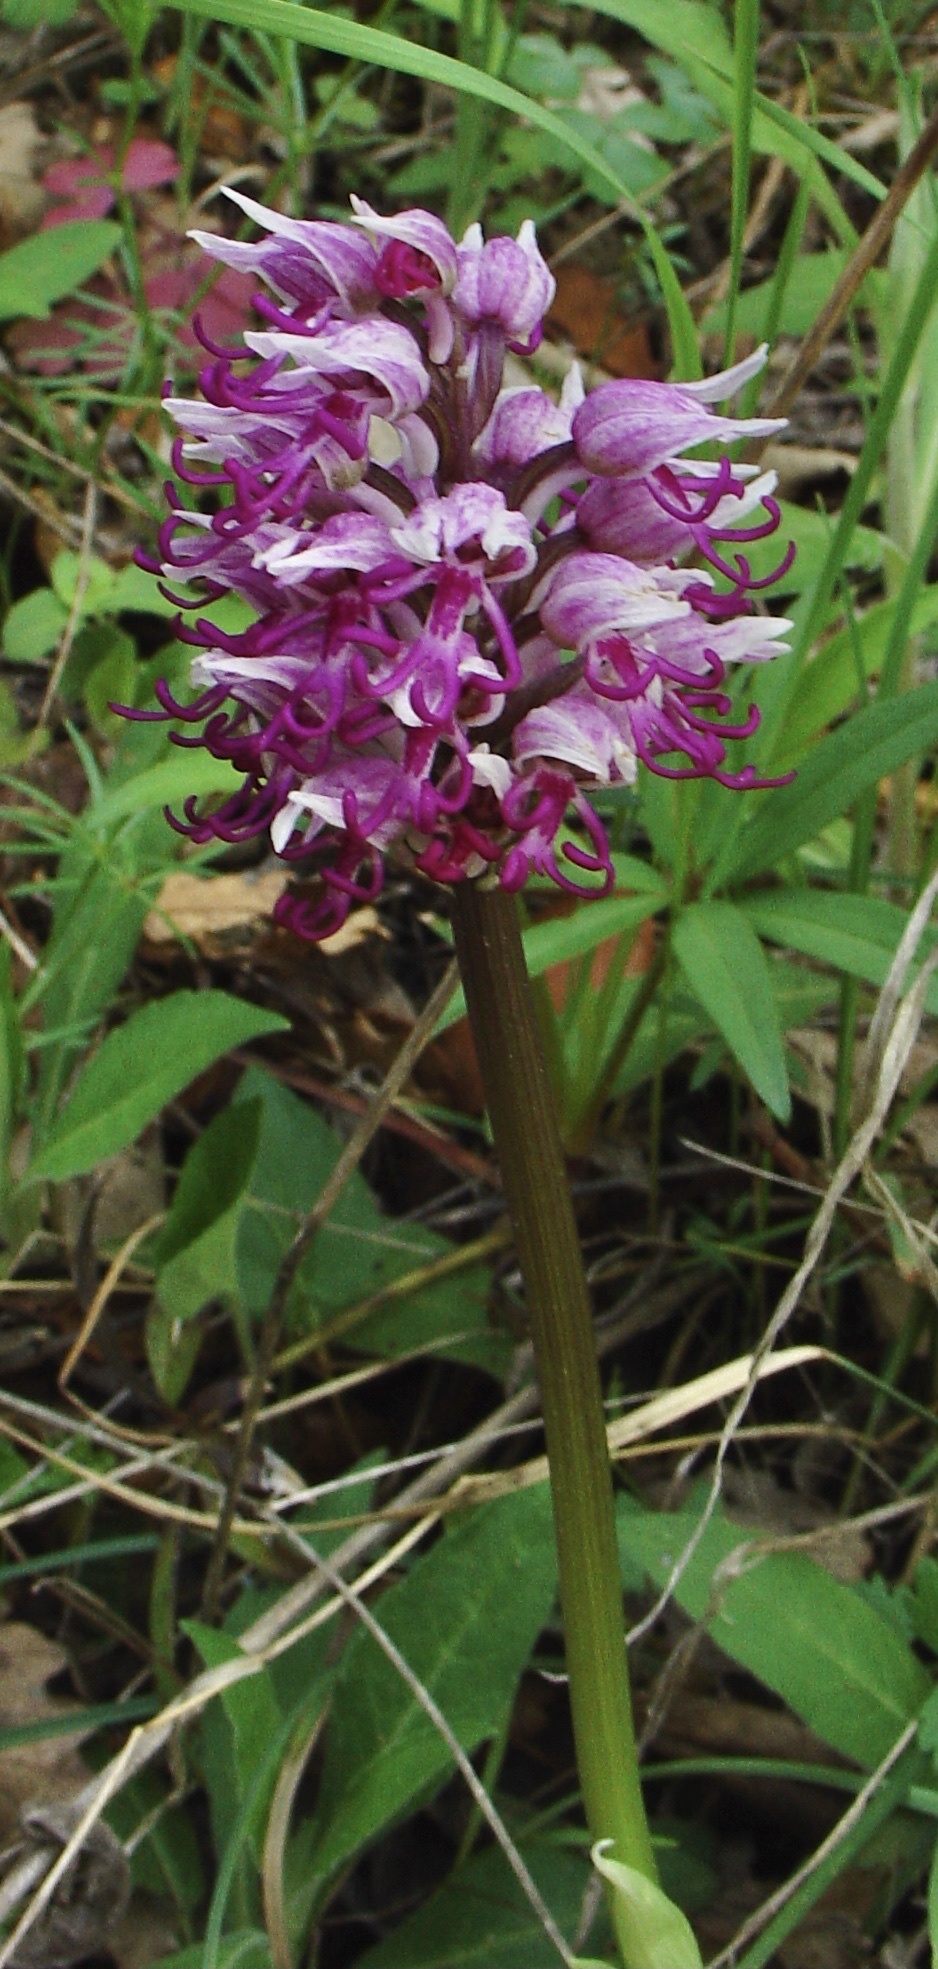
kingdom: Plantae
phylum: Tracheophyta
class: Liliopsida
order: Asparagales
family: Orchidaceae
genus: Orchis
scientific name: Orchis simia
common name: Monkey orchid
